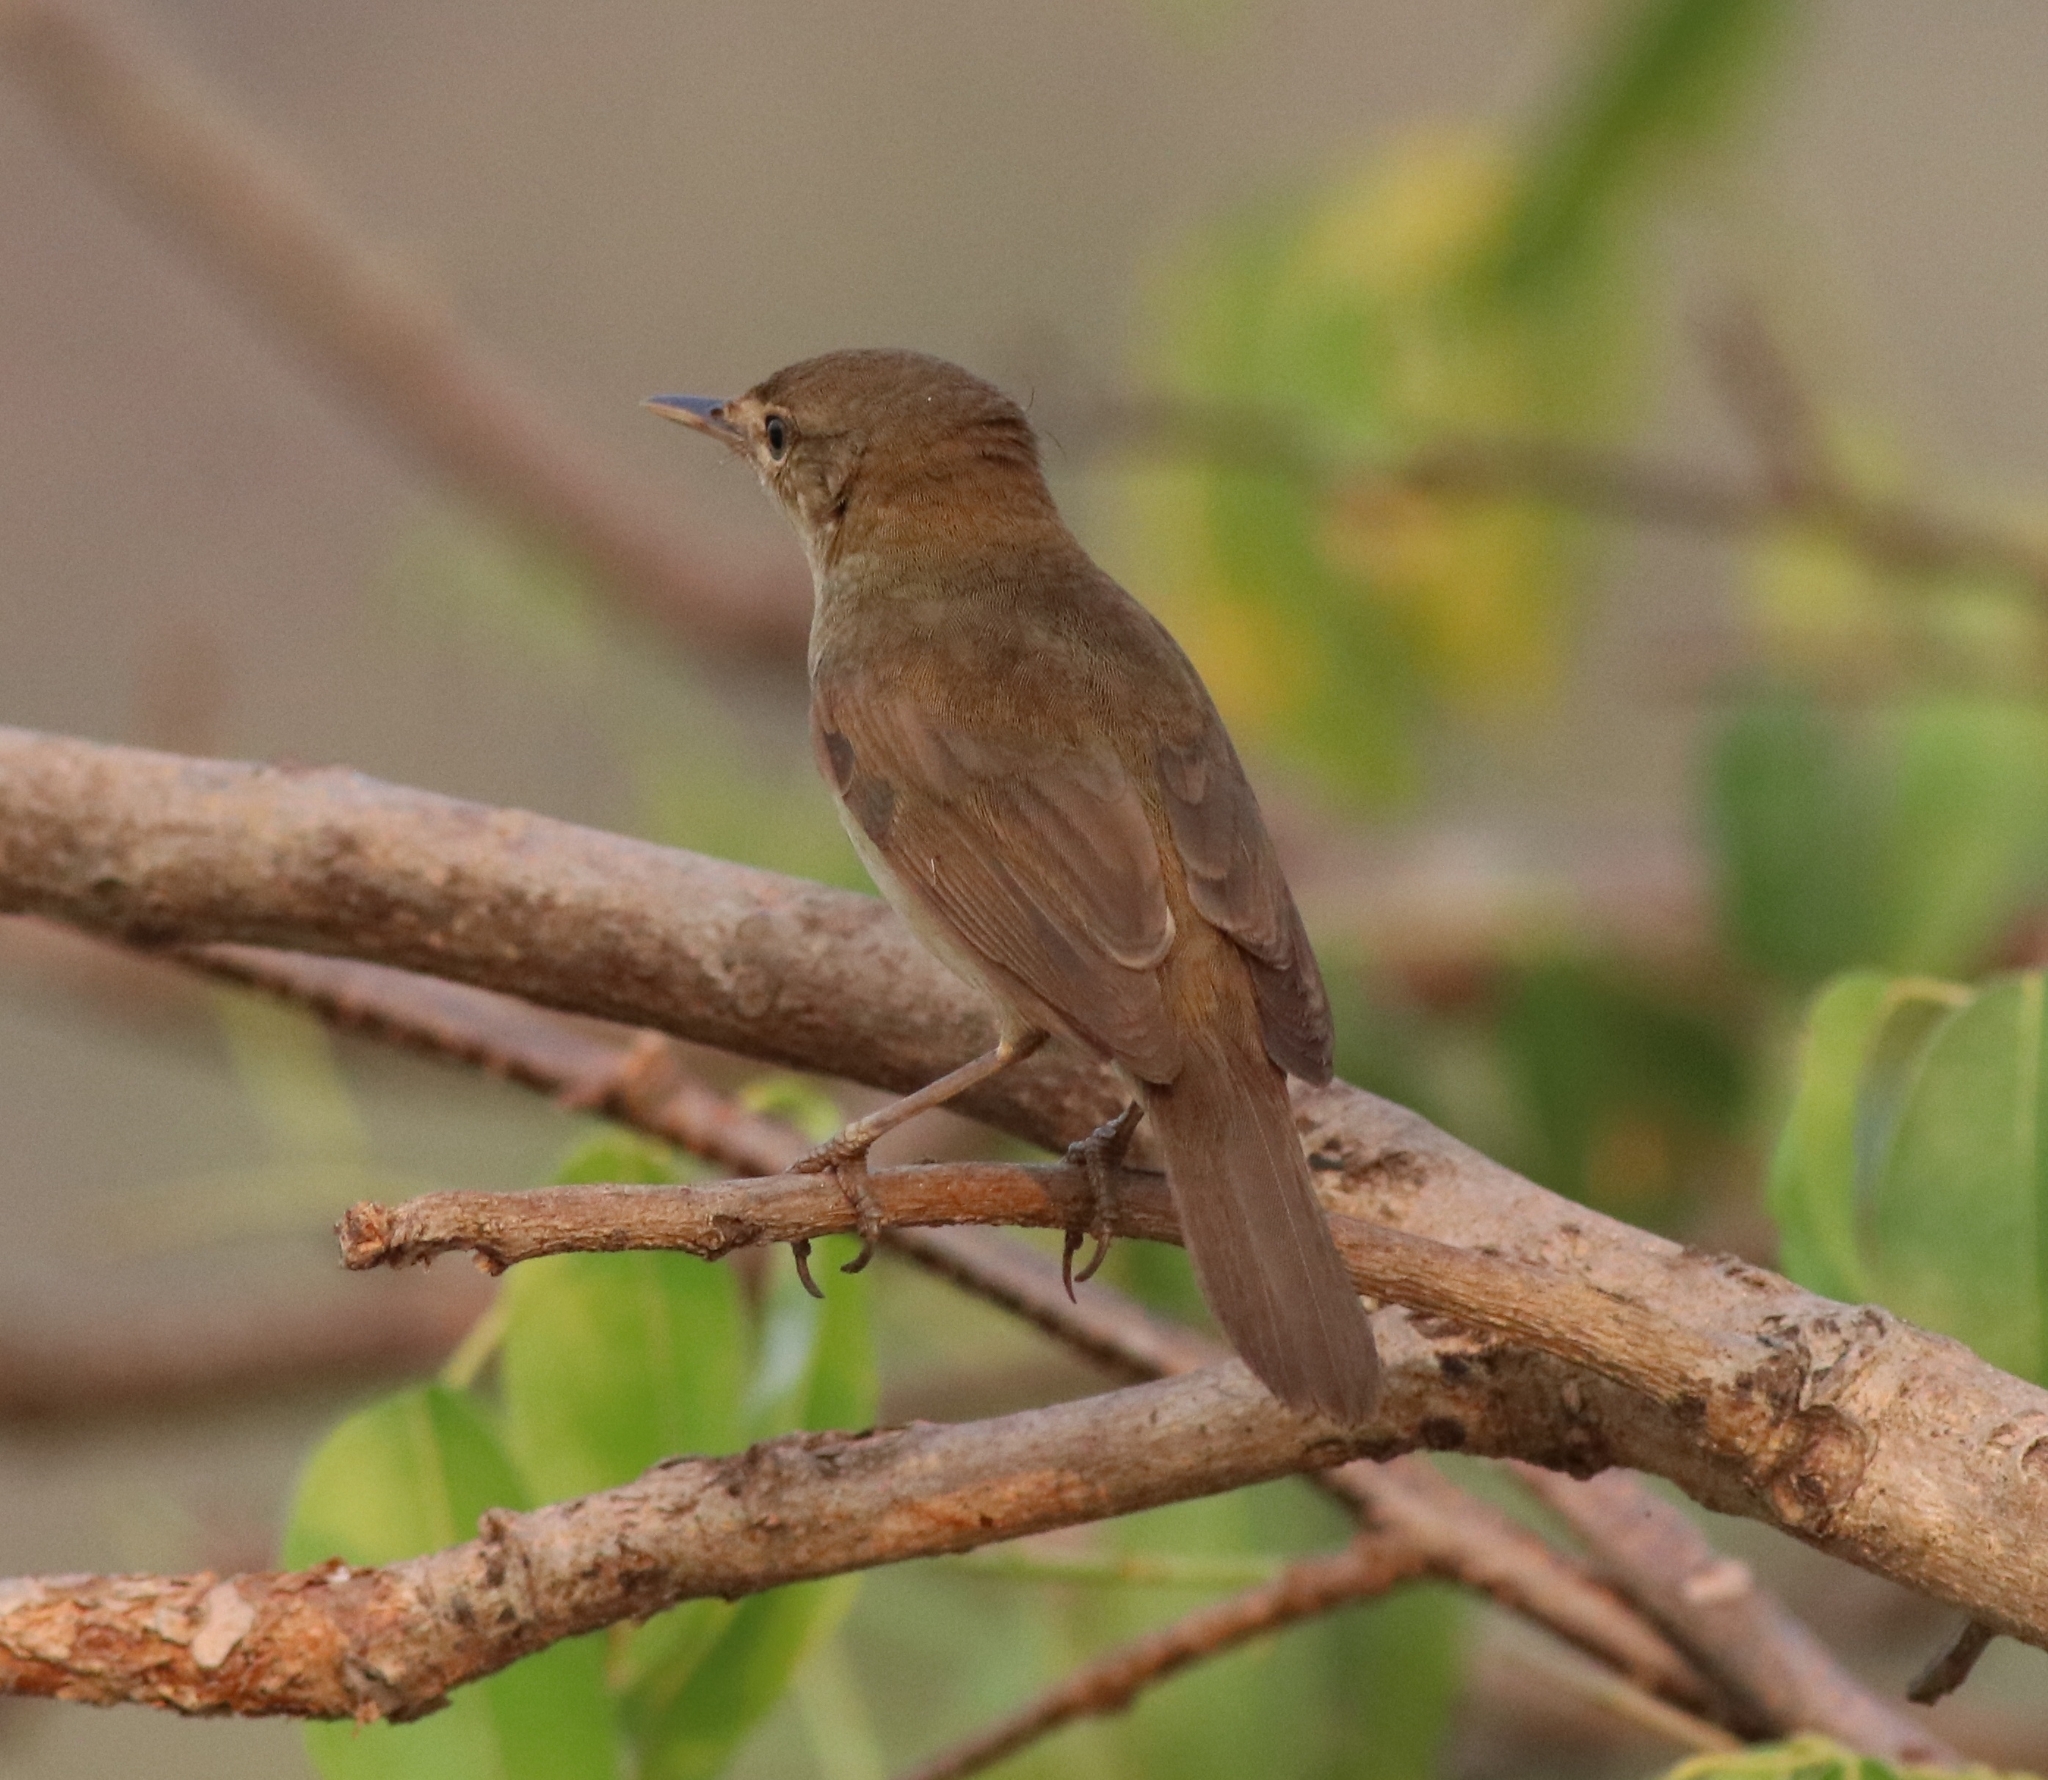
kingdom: Animalia
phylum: Chordata
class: Aves
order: Passeriformes
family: Acrocephalidae
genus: Acrocephalus
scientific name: Acrocephalus dumetorum
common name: Blyth's reed warbler
